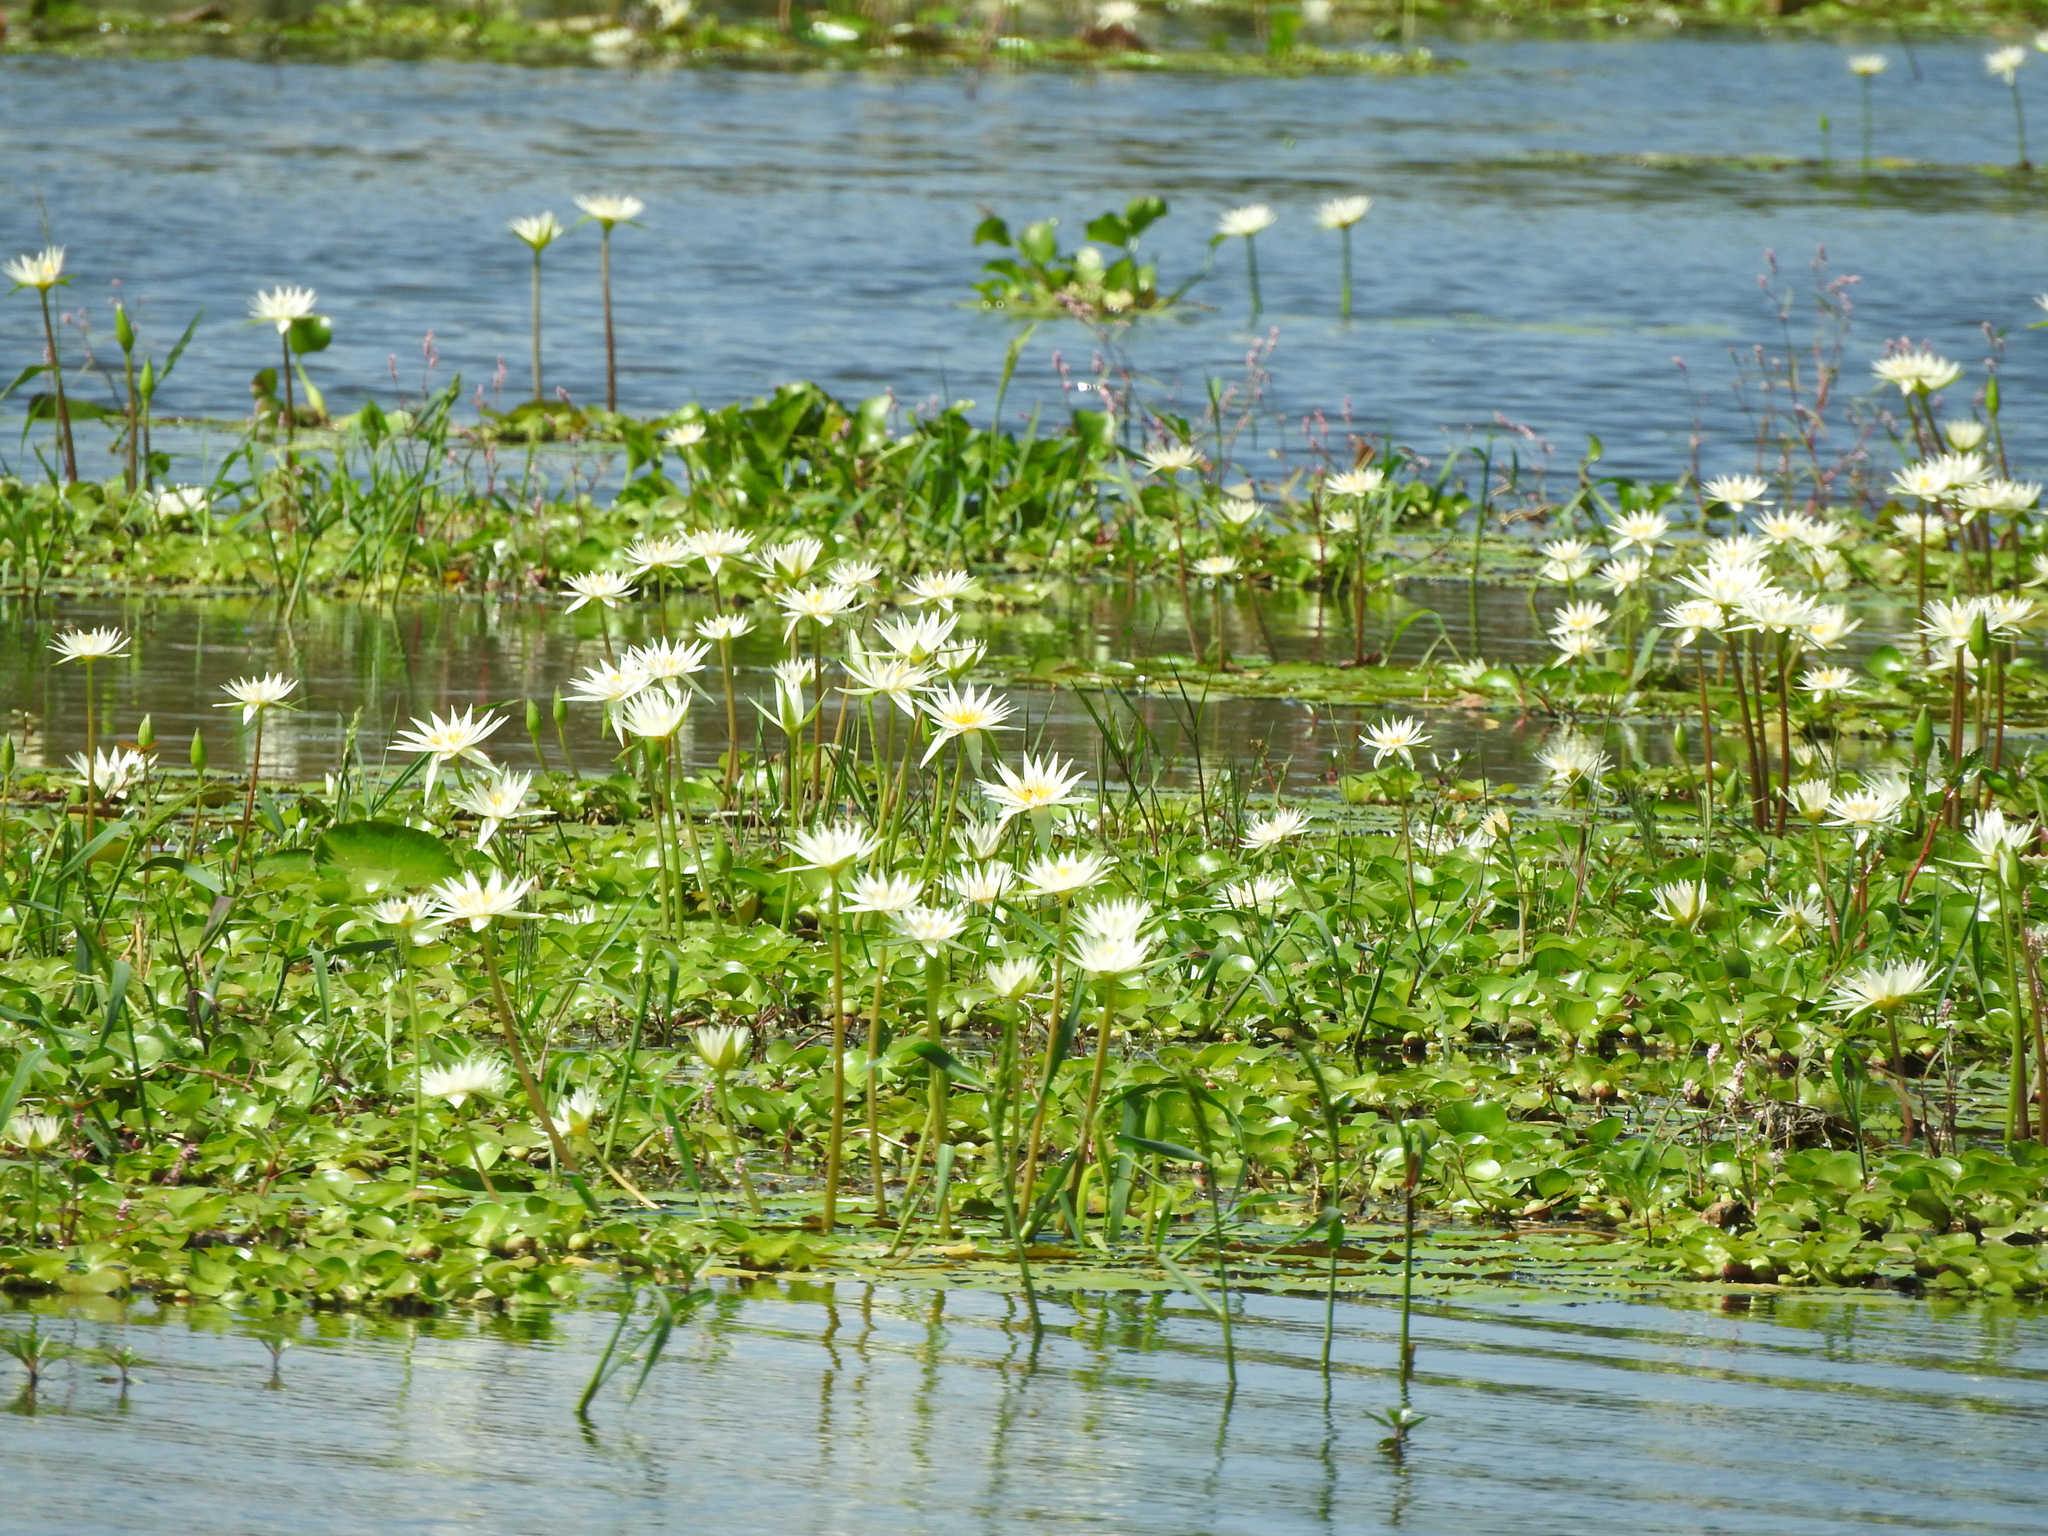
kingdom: Plantae
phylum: Tracheophyta
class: Magnoliopsida
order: Nymphaeales
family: Nymphaeaceae
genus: Nymphaea
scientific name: Nymphaea gracilis
